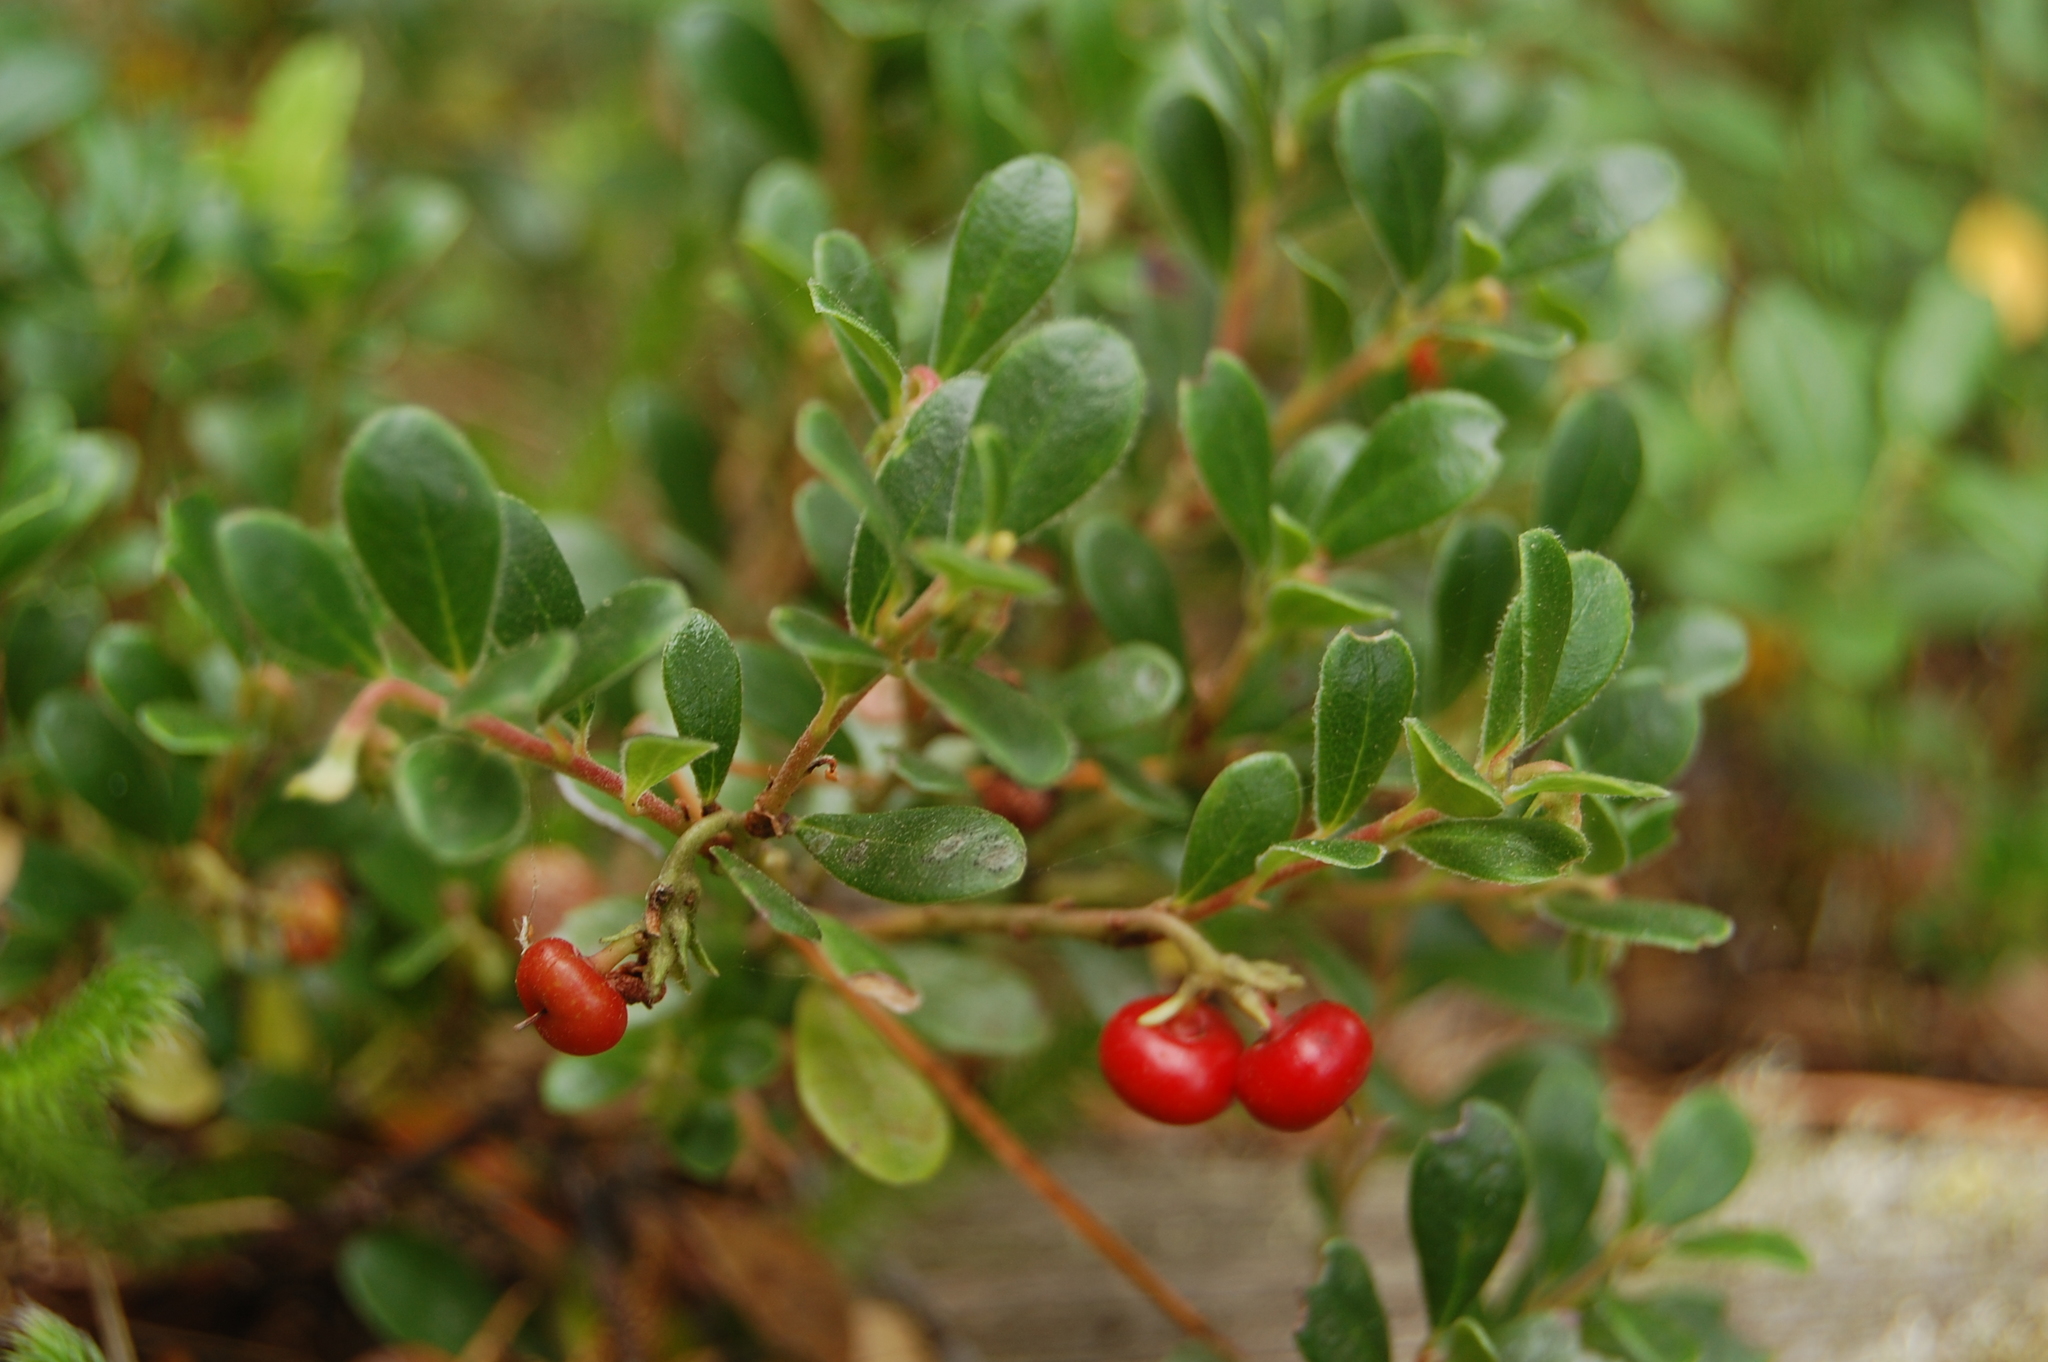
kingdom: Plantae
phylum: Tracheophyta
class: Magnoliopsida
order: Ericales
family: Ericaceae
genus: Arctostaphylos
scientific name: Arctostaphylos uva-ursi
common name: Bearberry
